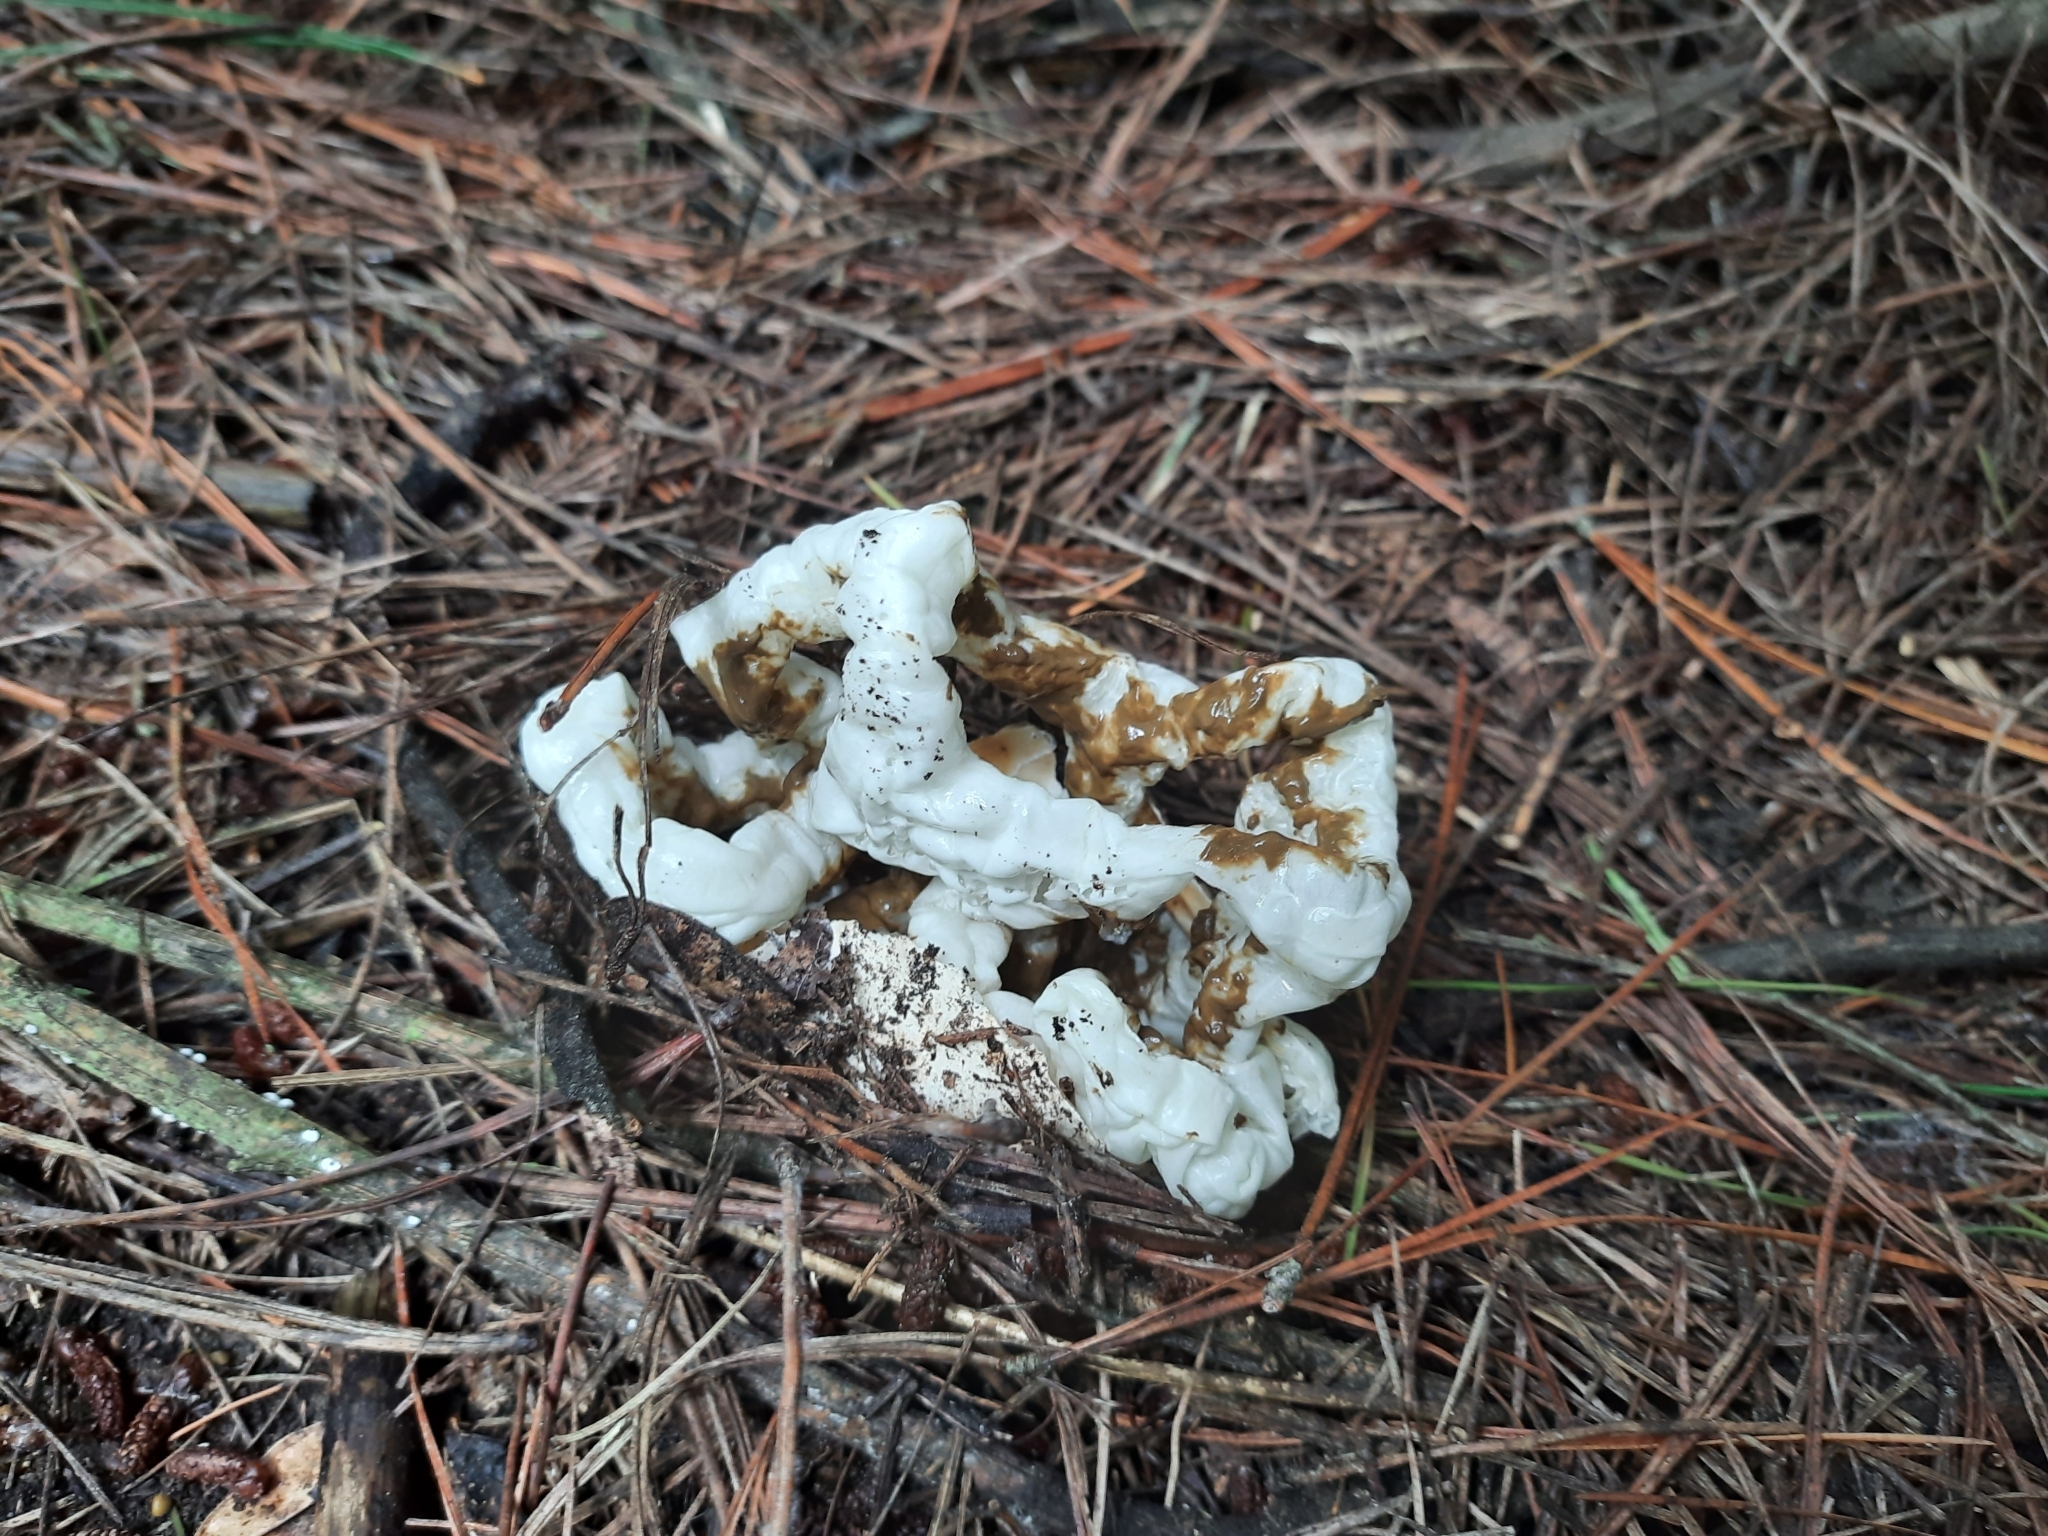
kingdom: Fungi
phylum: Basidiomycota
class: Agaricomycetes
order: Phallales
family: Phallaceae
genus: Ileodictyon
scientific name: Ileodictyon cibarium
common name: Basket fungus
